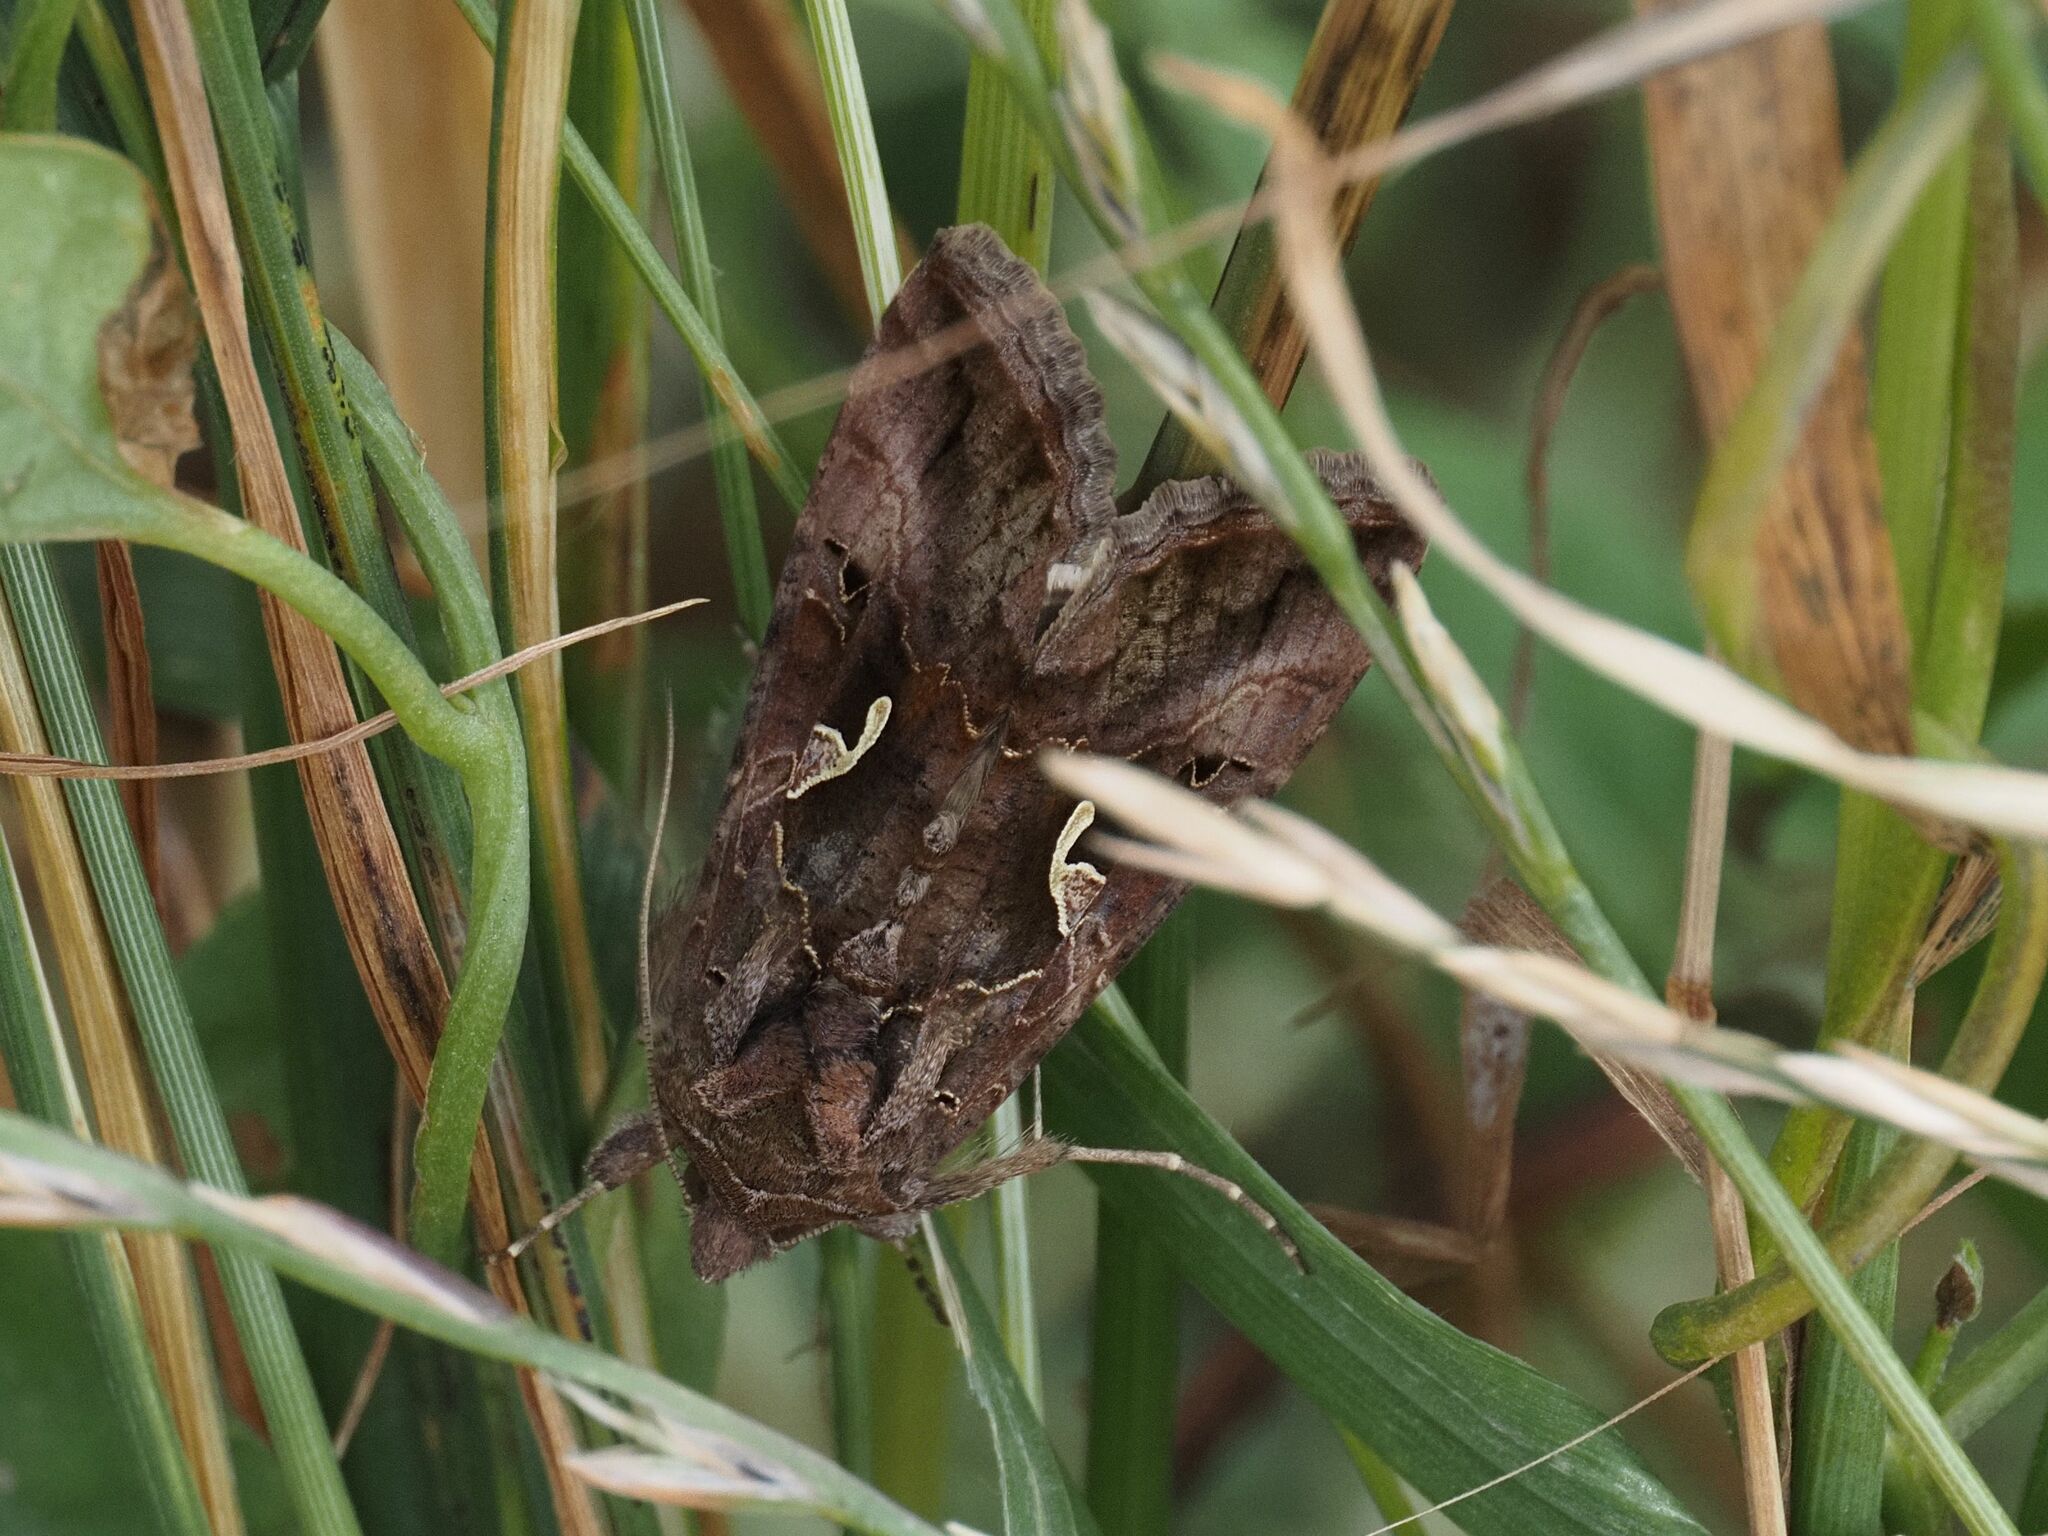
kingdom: Animalia
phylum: Arthropoda
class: Insecta
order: Lepidoptera
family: Noctuidae
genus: Autographa
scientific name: Autographa gamma
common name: Silver y
